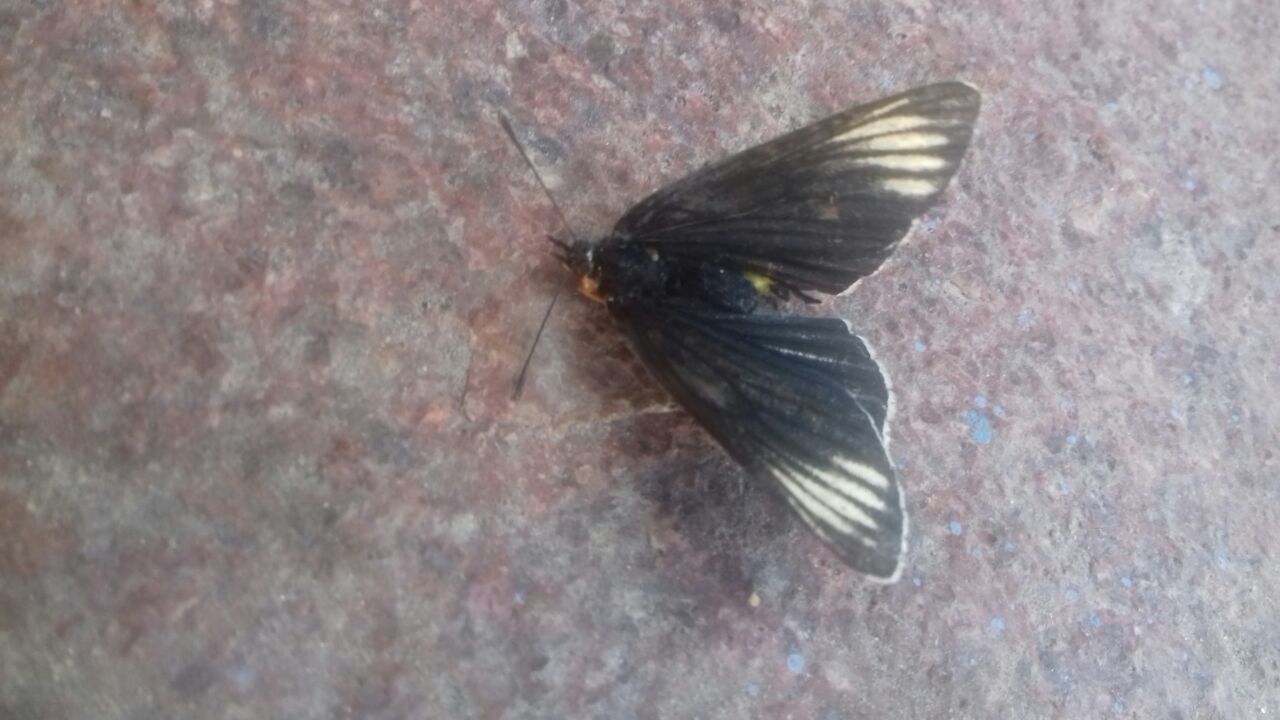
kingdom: Animalia
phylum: Arthropoda
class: Insecta
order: Lepidoptera
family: Nymphalidae
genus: Chlosyne
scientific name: Chlosyne ehrenbergii
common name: White-rayed patch
